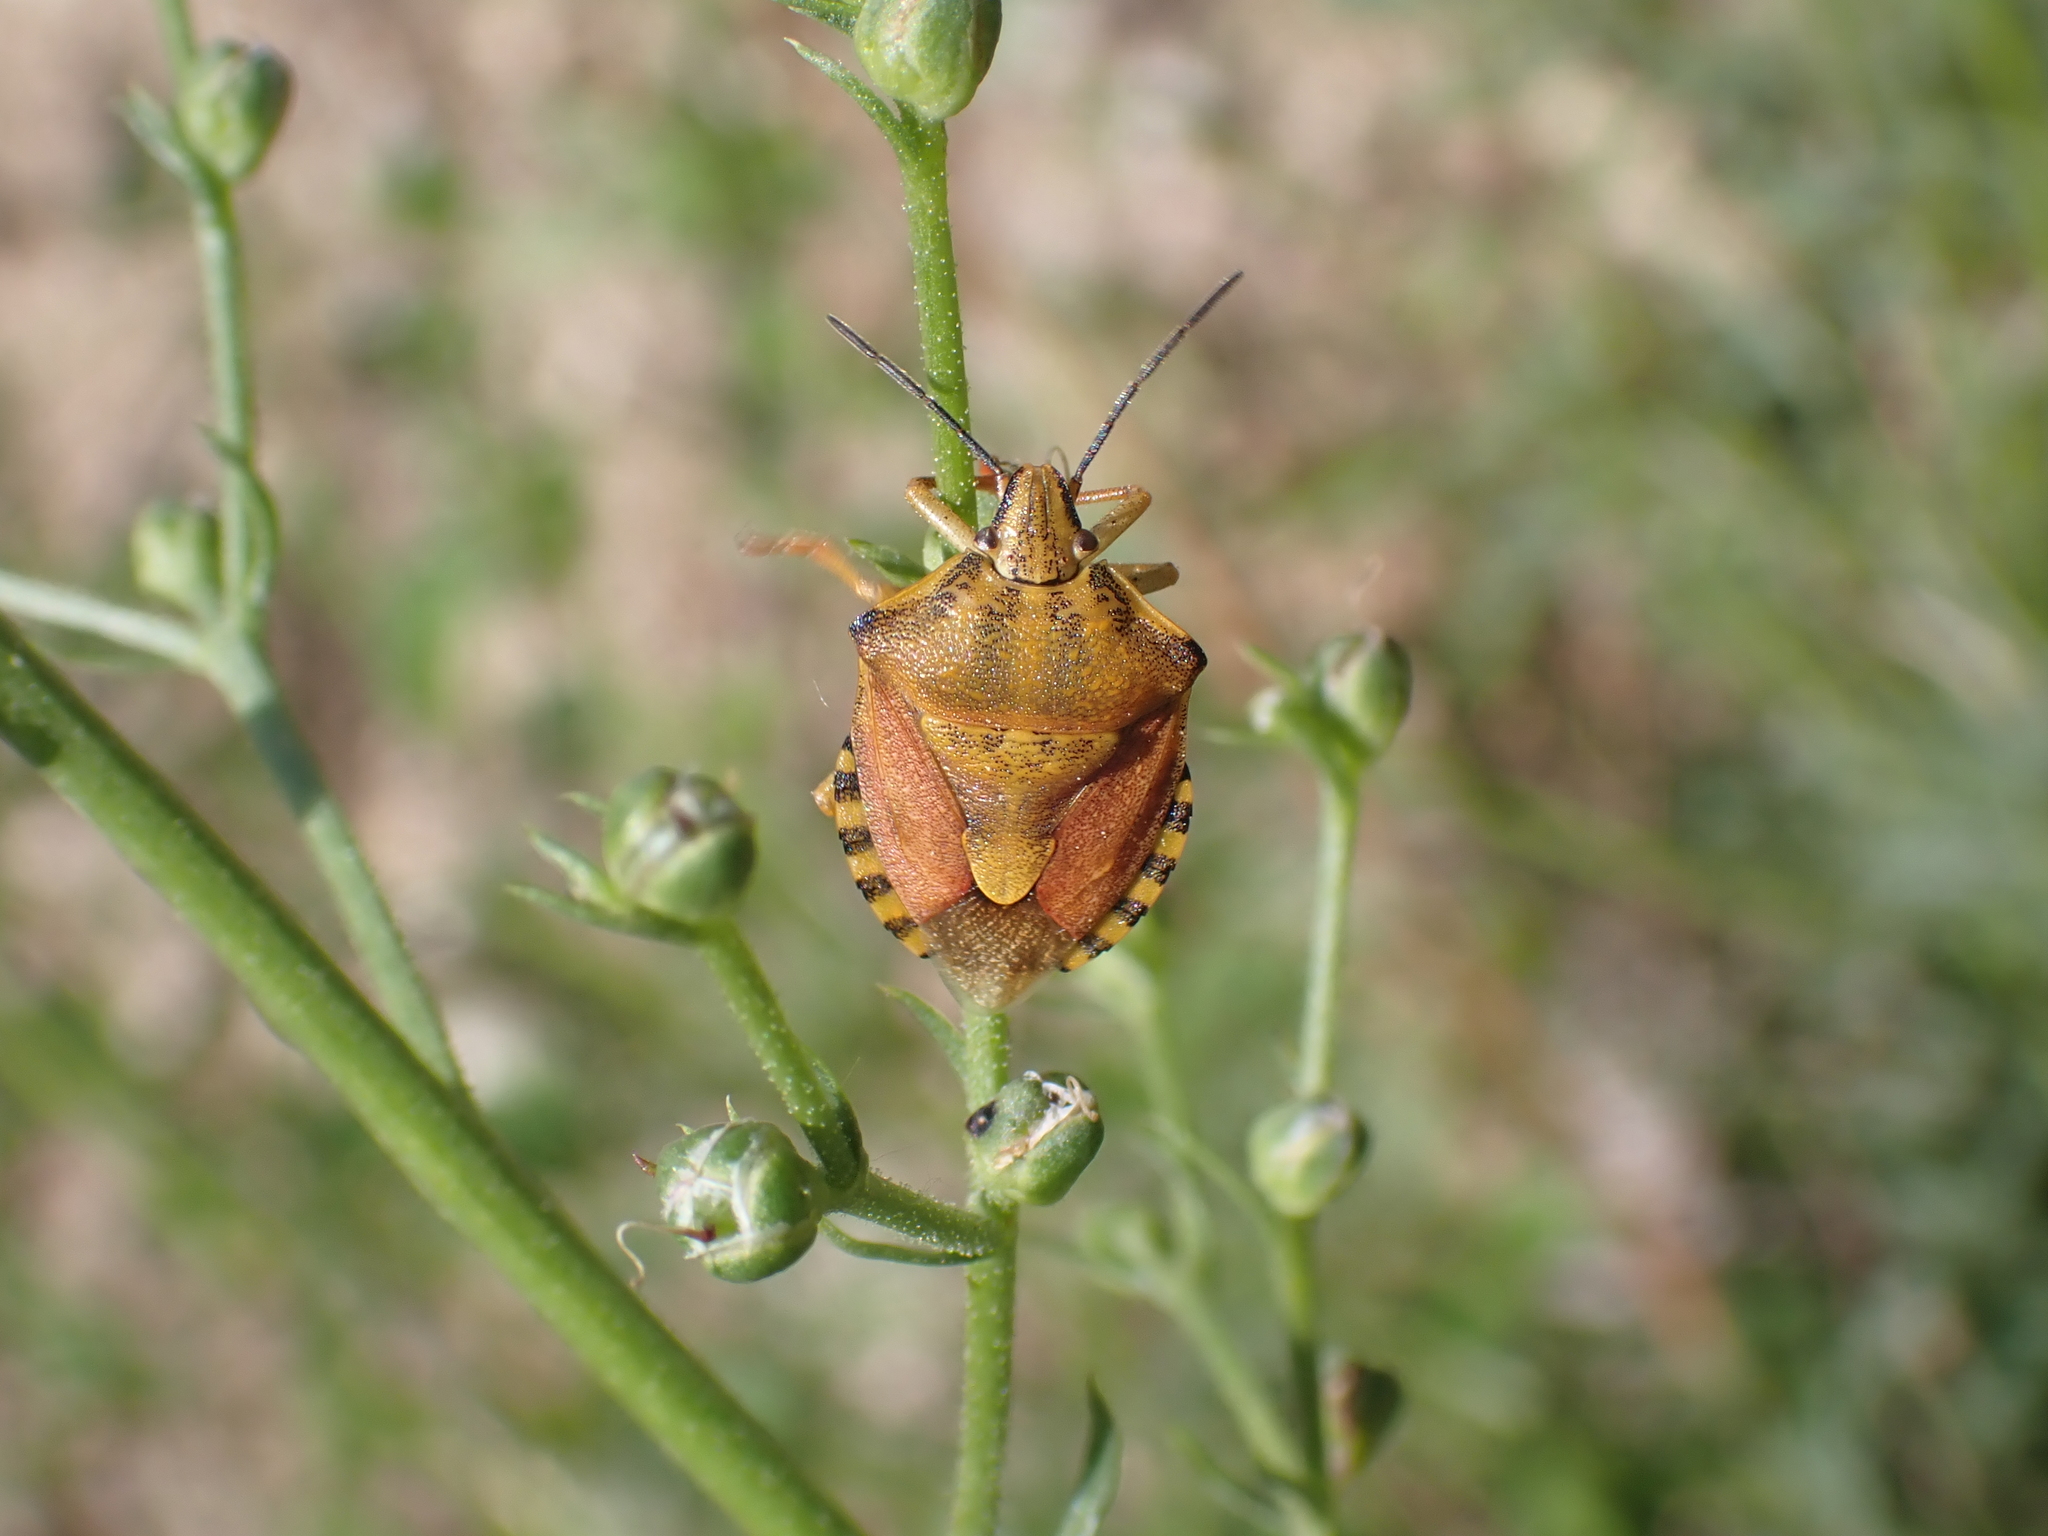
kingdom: Animalia
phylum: Arthropoda
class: Insecta
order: Hemiptera
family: Pentatomidae
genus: Carpocoris
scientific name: Carpocoris purpureipennis
